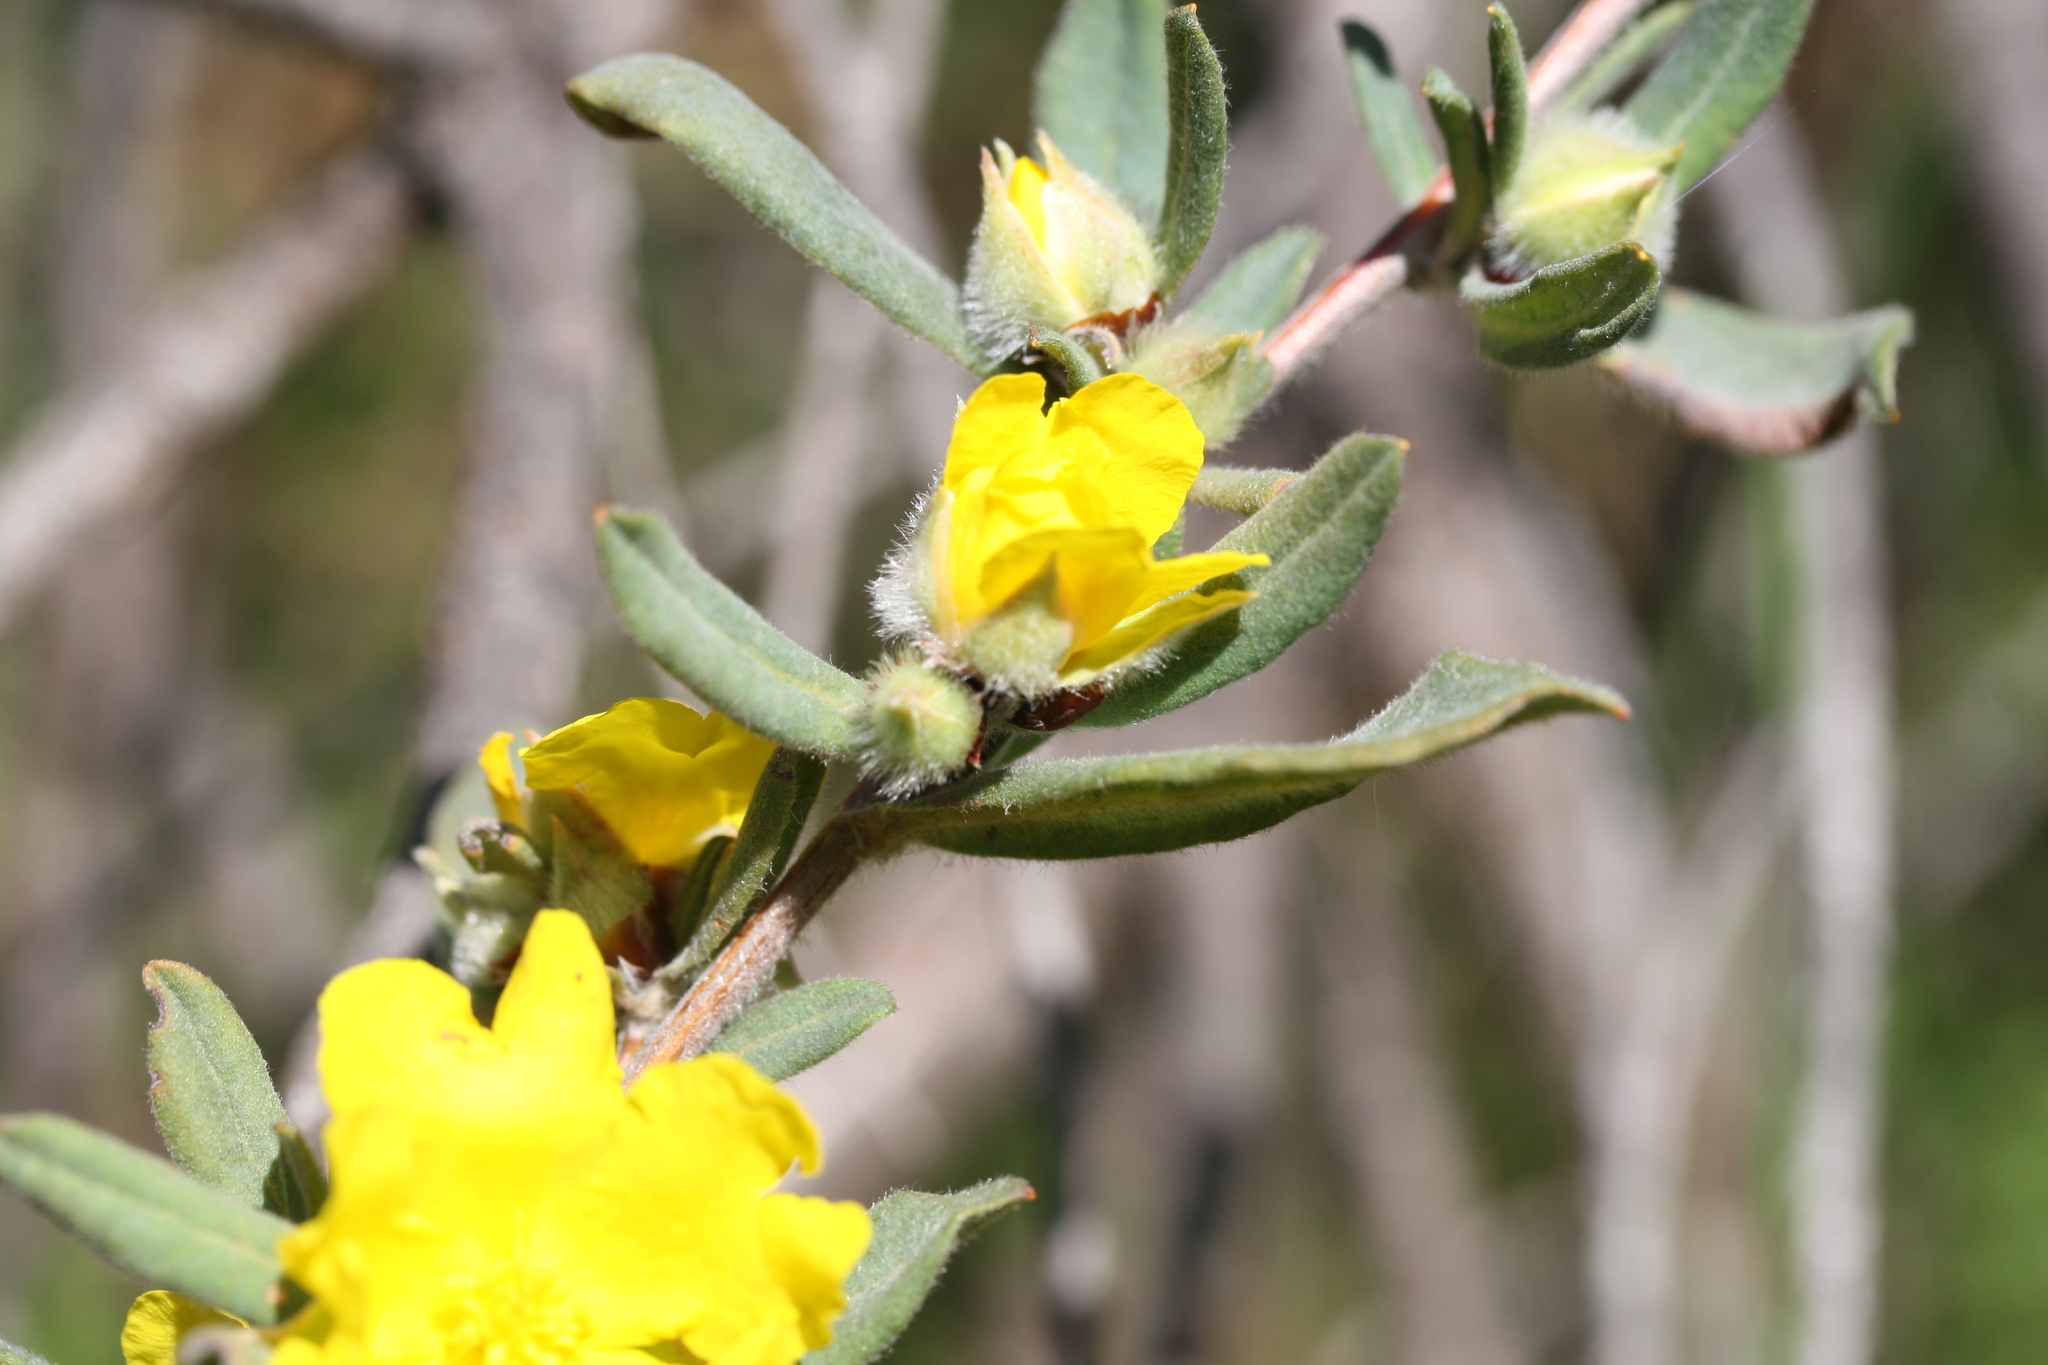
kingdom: Plantae
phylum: Tracheophyta
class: Magnoliopsida
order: Dilleniales
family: Dilleniaceae
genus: Hibbertia
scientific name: Hibbertia commutata
